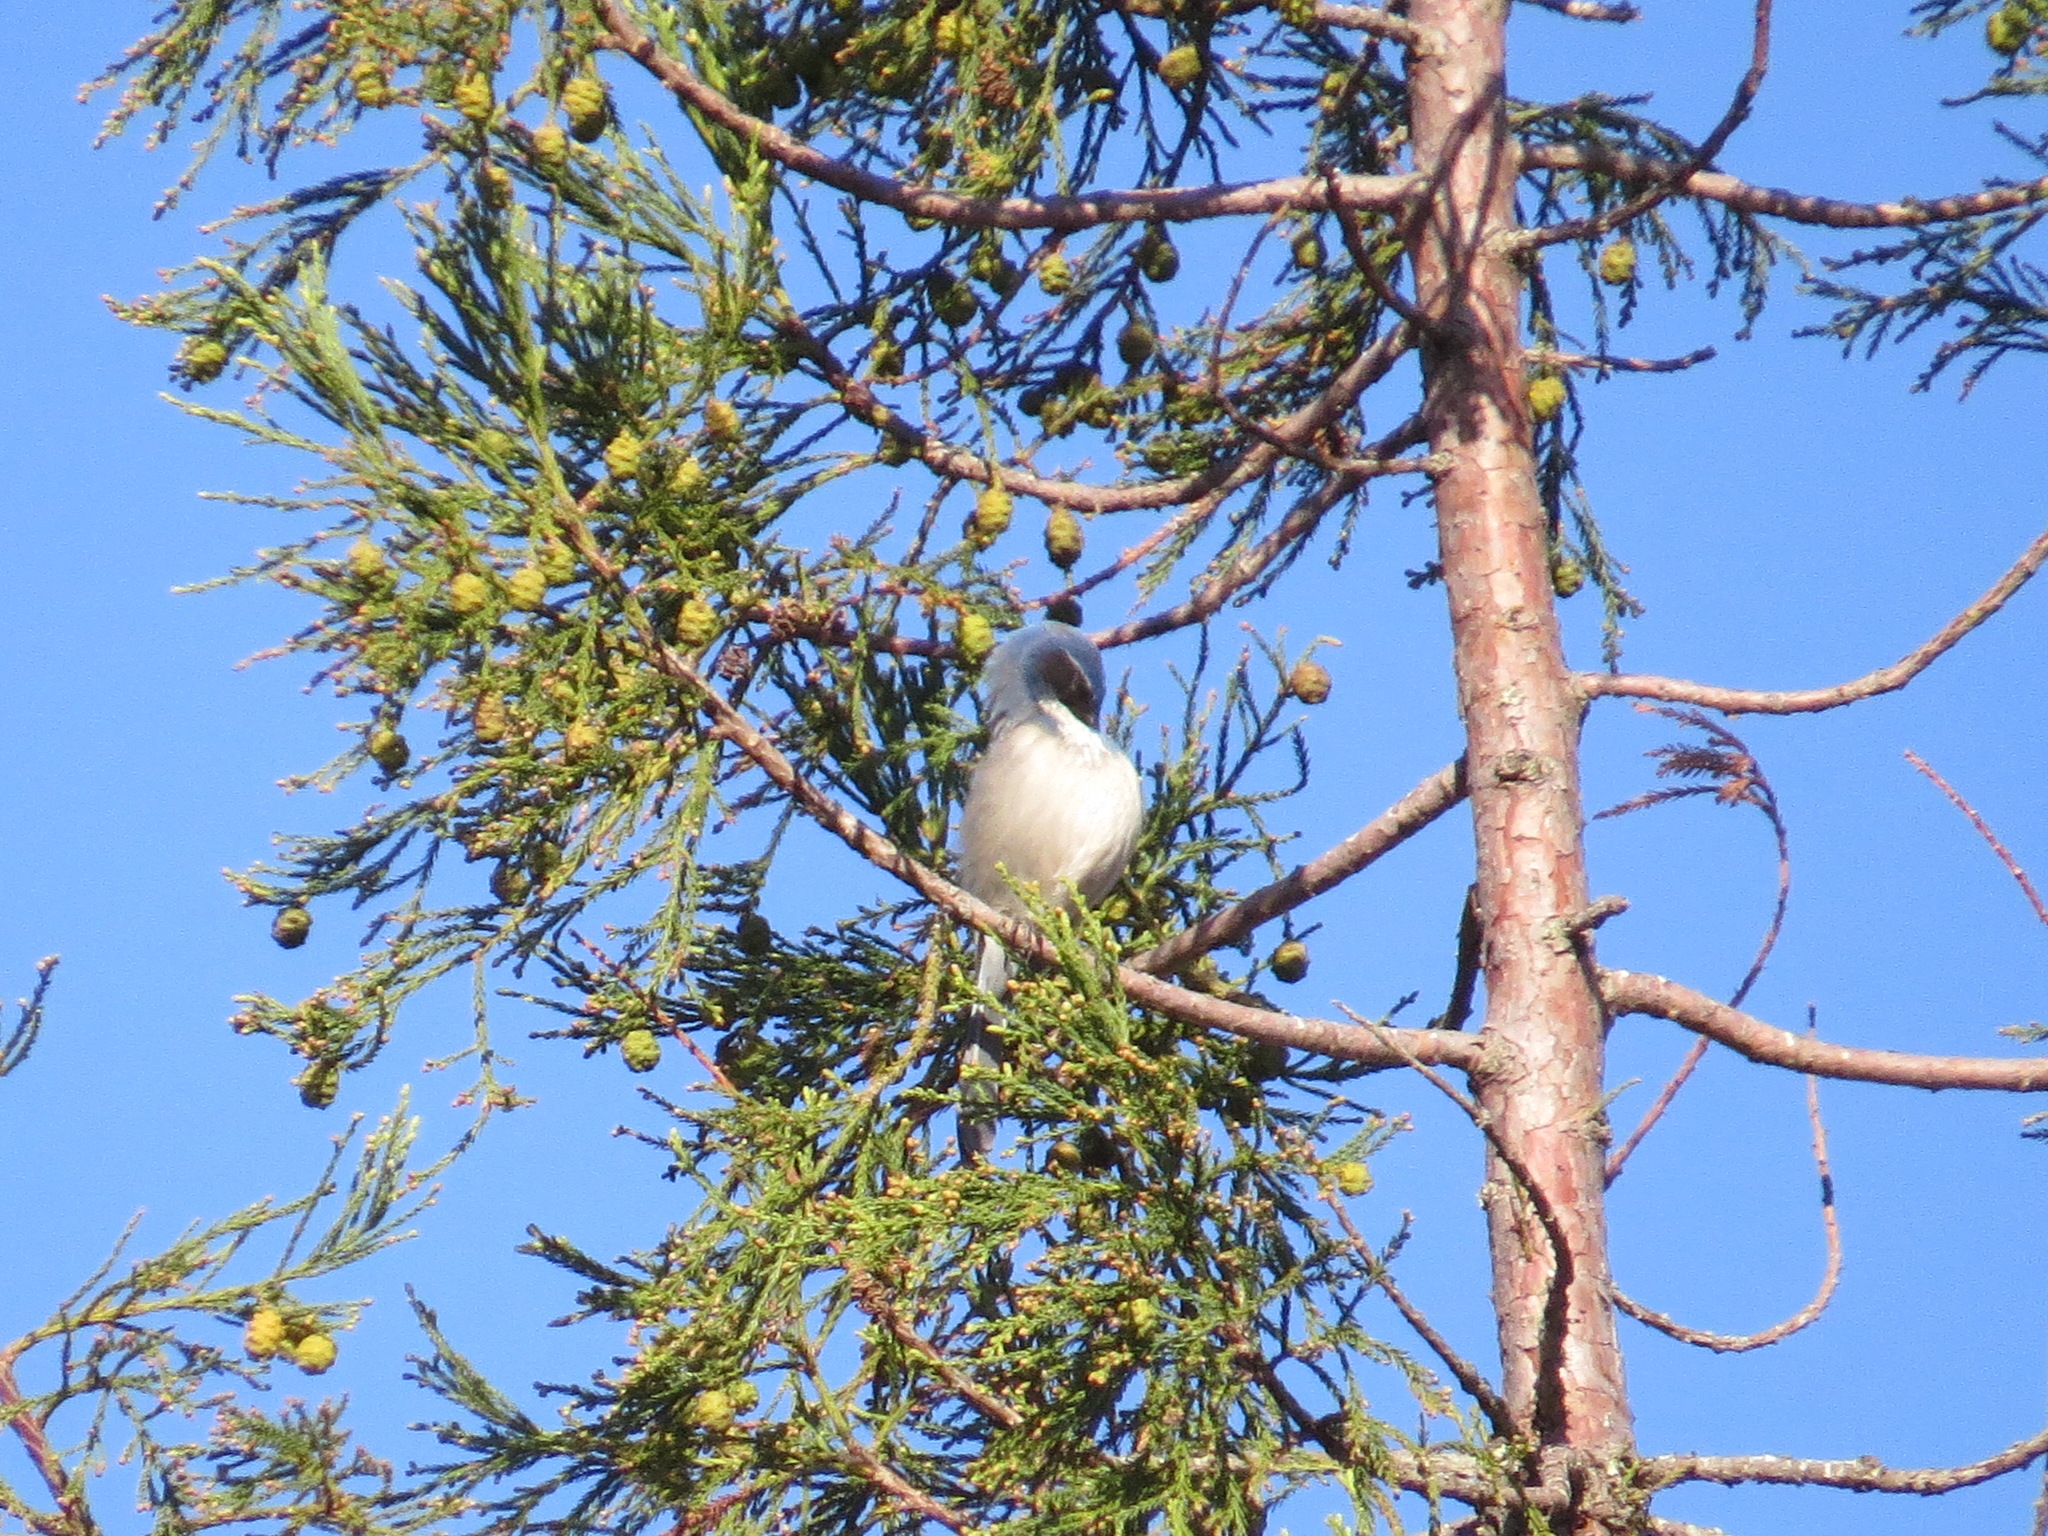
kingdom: Animalia
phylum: Chordata
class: Aves
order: Passeriformes
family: Corvidae
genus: Aphelocoma
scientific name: Aphelocoma californica
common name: California scrub-jay
